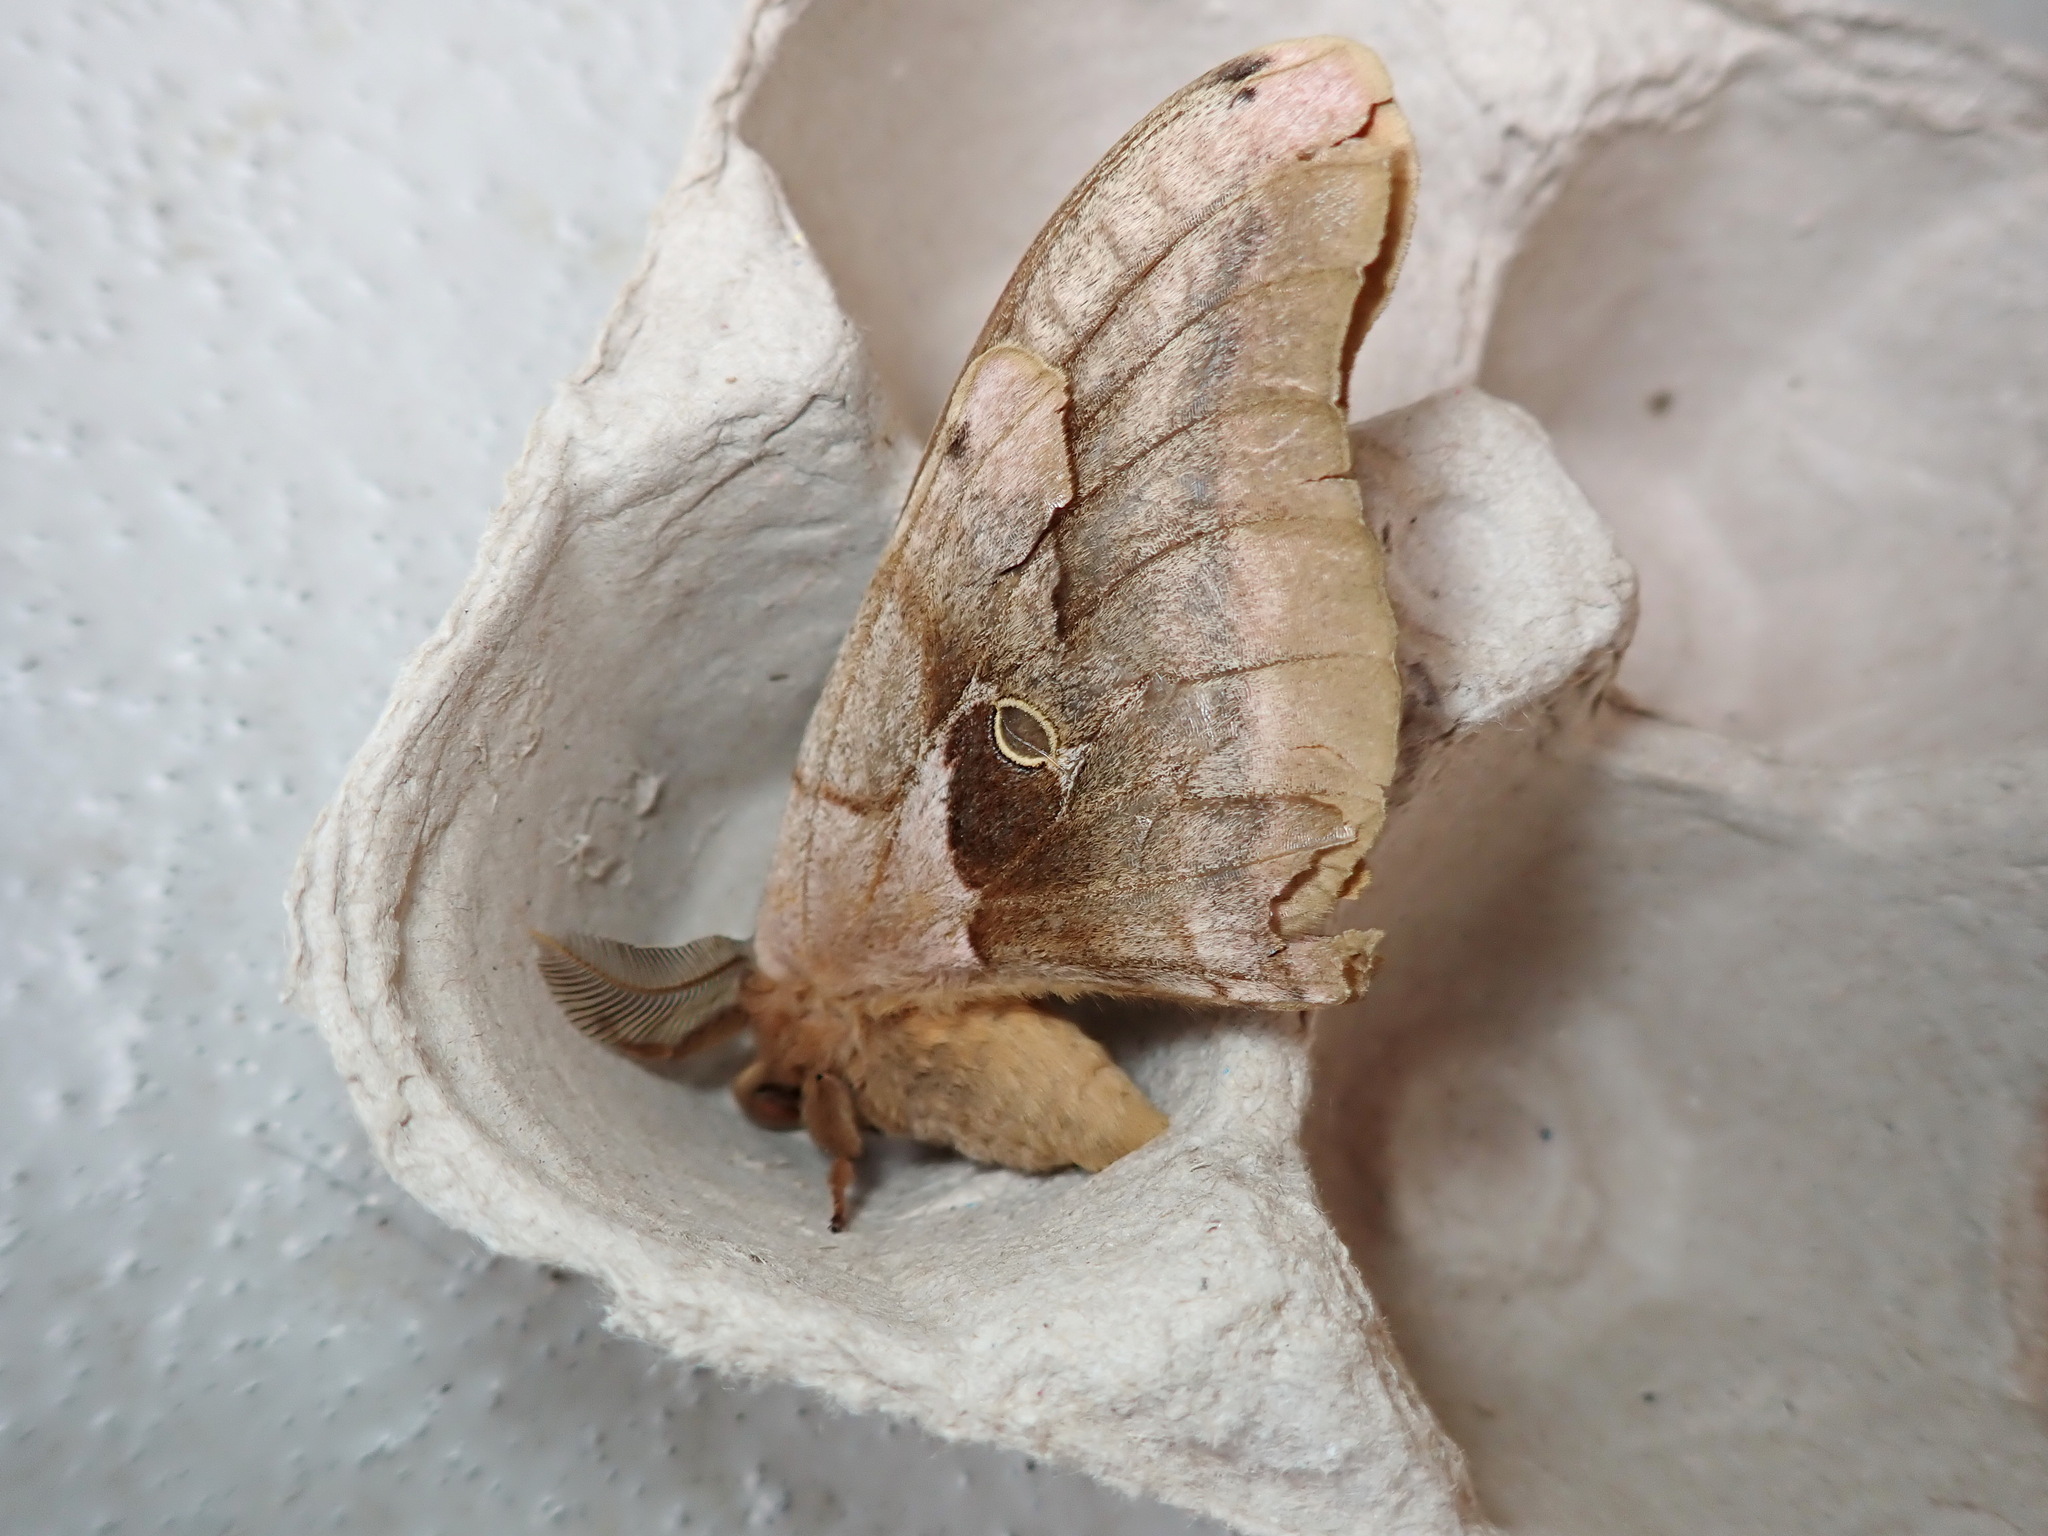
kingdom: Animalia
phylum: Arthropoda
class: Insecta
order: Lepidoptera
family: Saturniidae
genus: Antheraea
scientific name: Antheraea polyphemus
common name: Polyphemus moth
